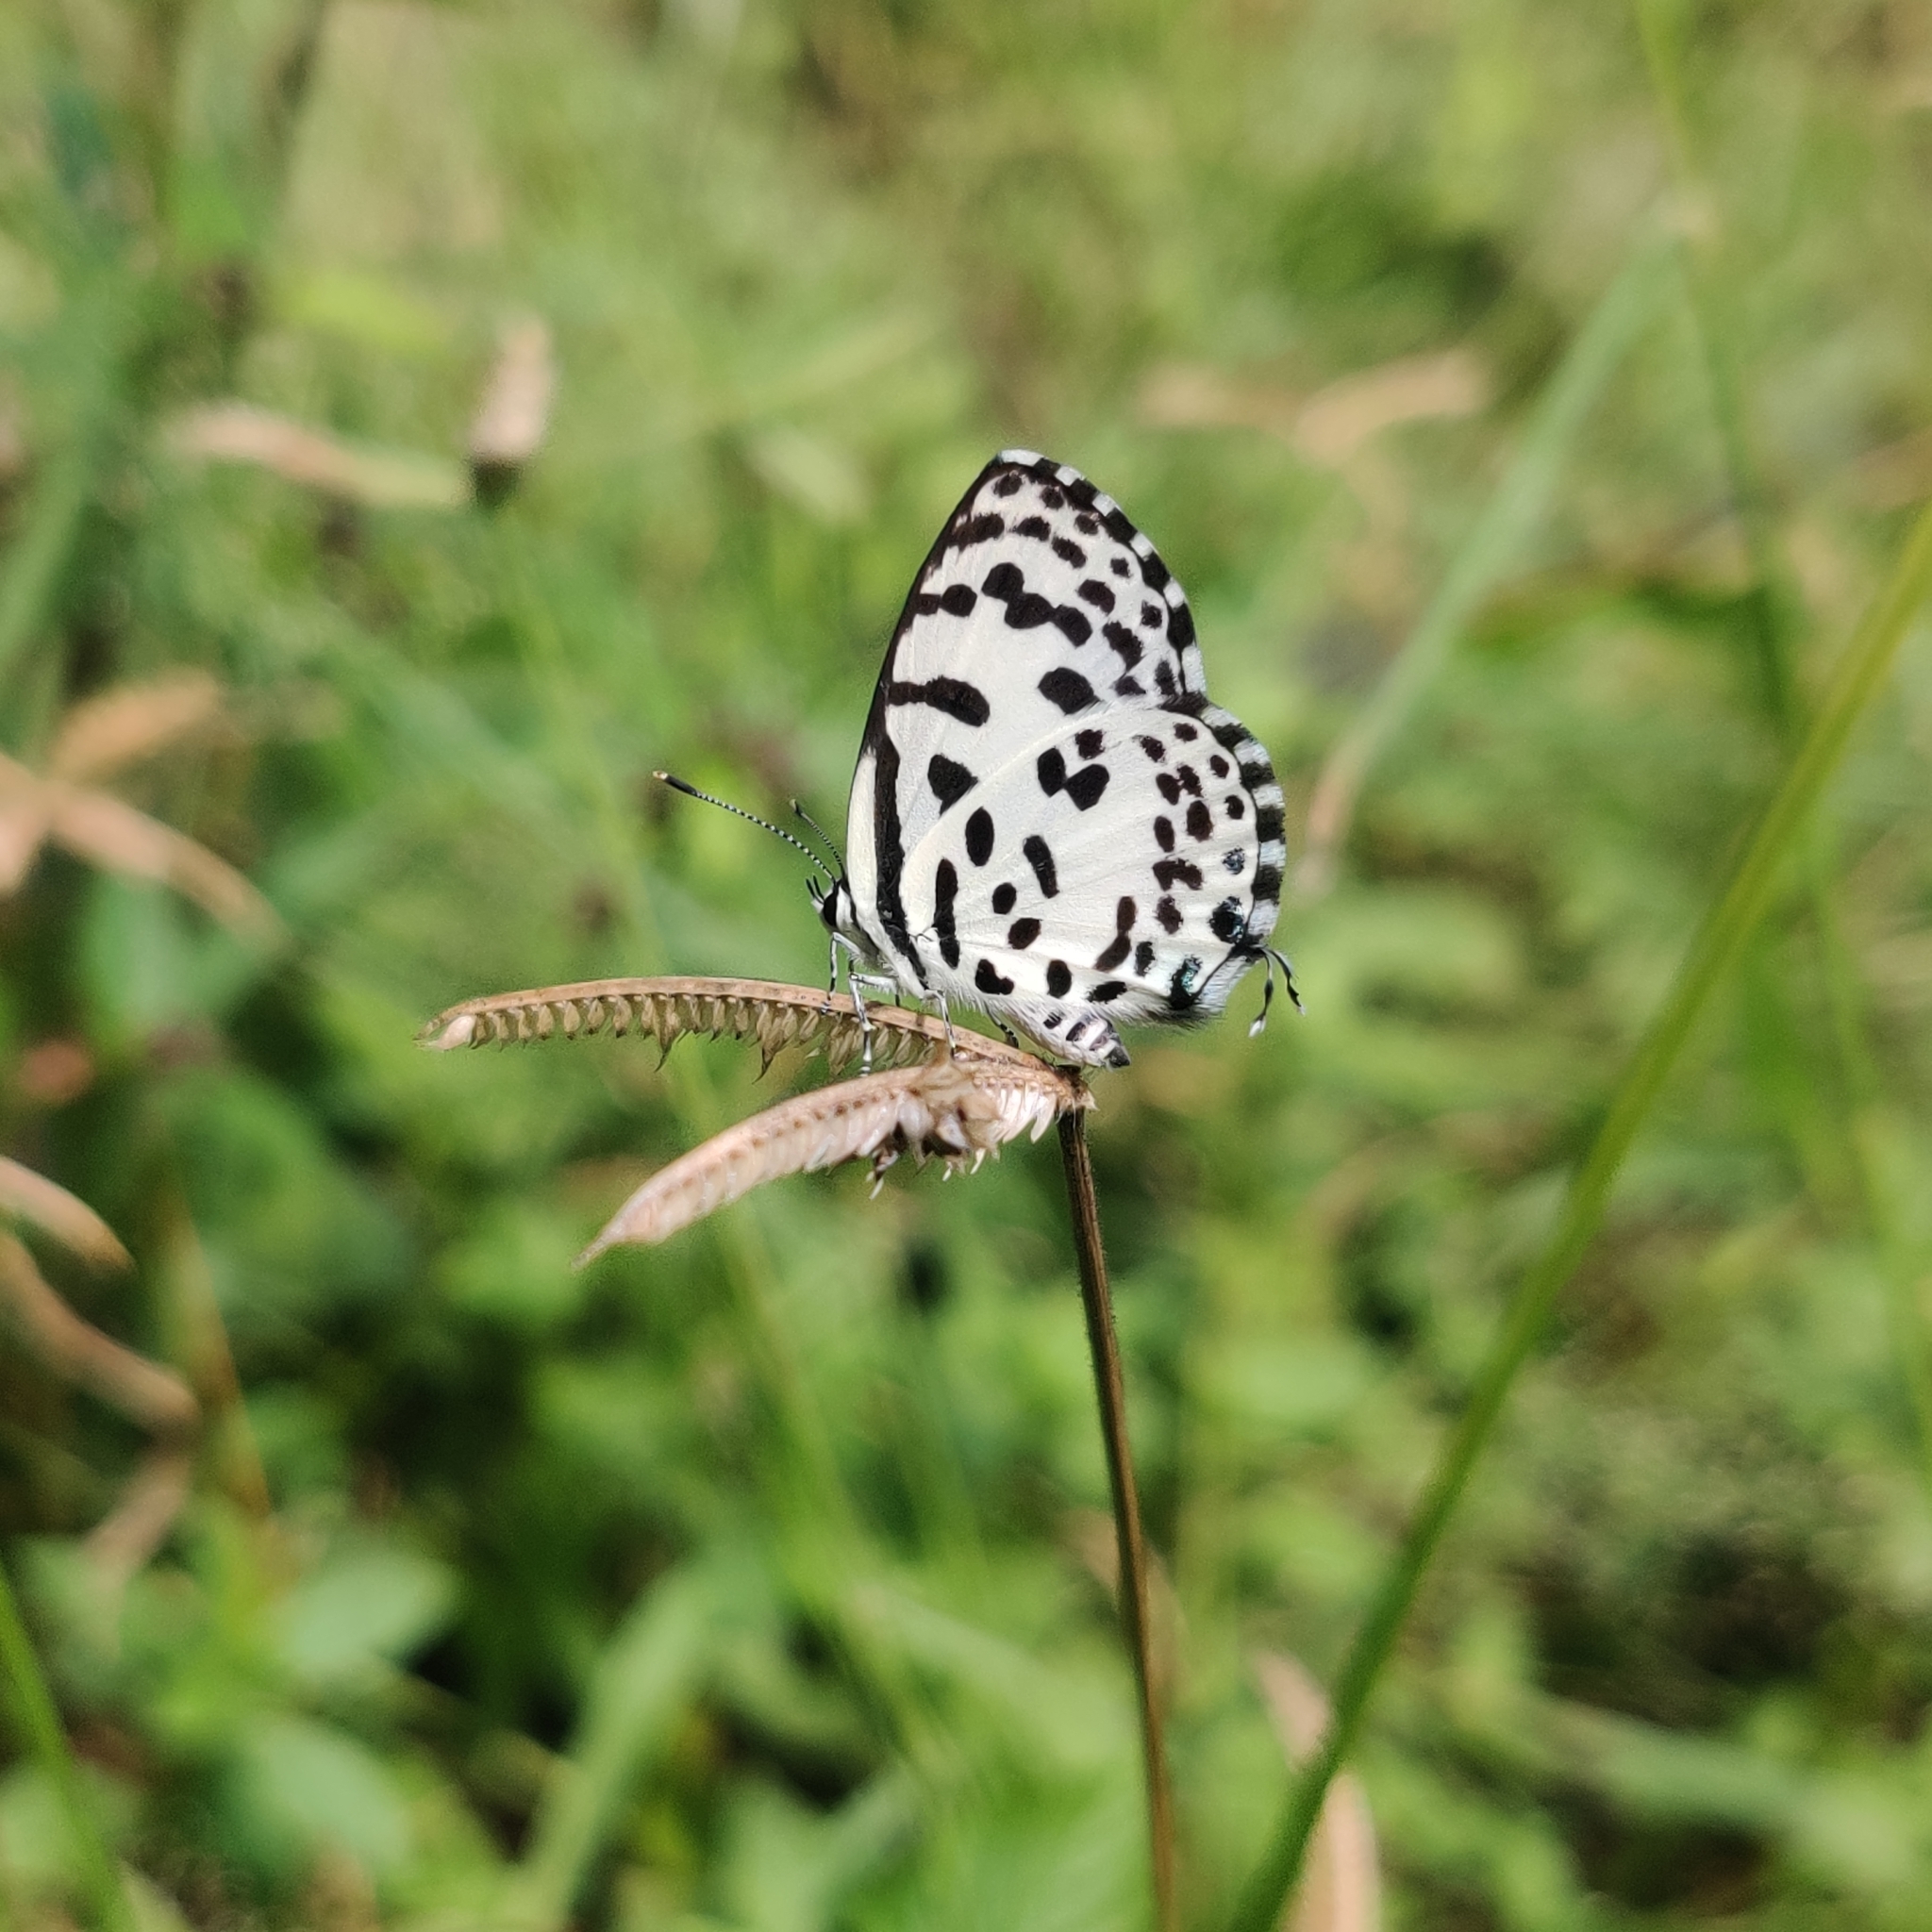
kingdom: Animalia
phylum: Arthropoda
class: Insecta
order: Lepidoptera
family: Lycaenidae
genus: Castalius
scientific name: Castalius rosimon
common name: Common pierrot
